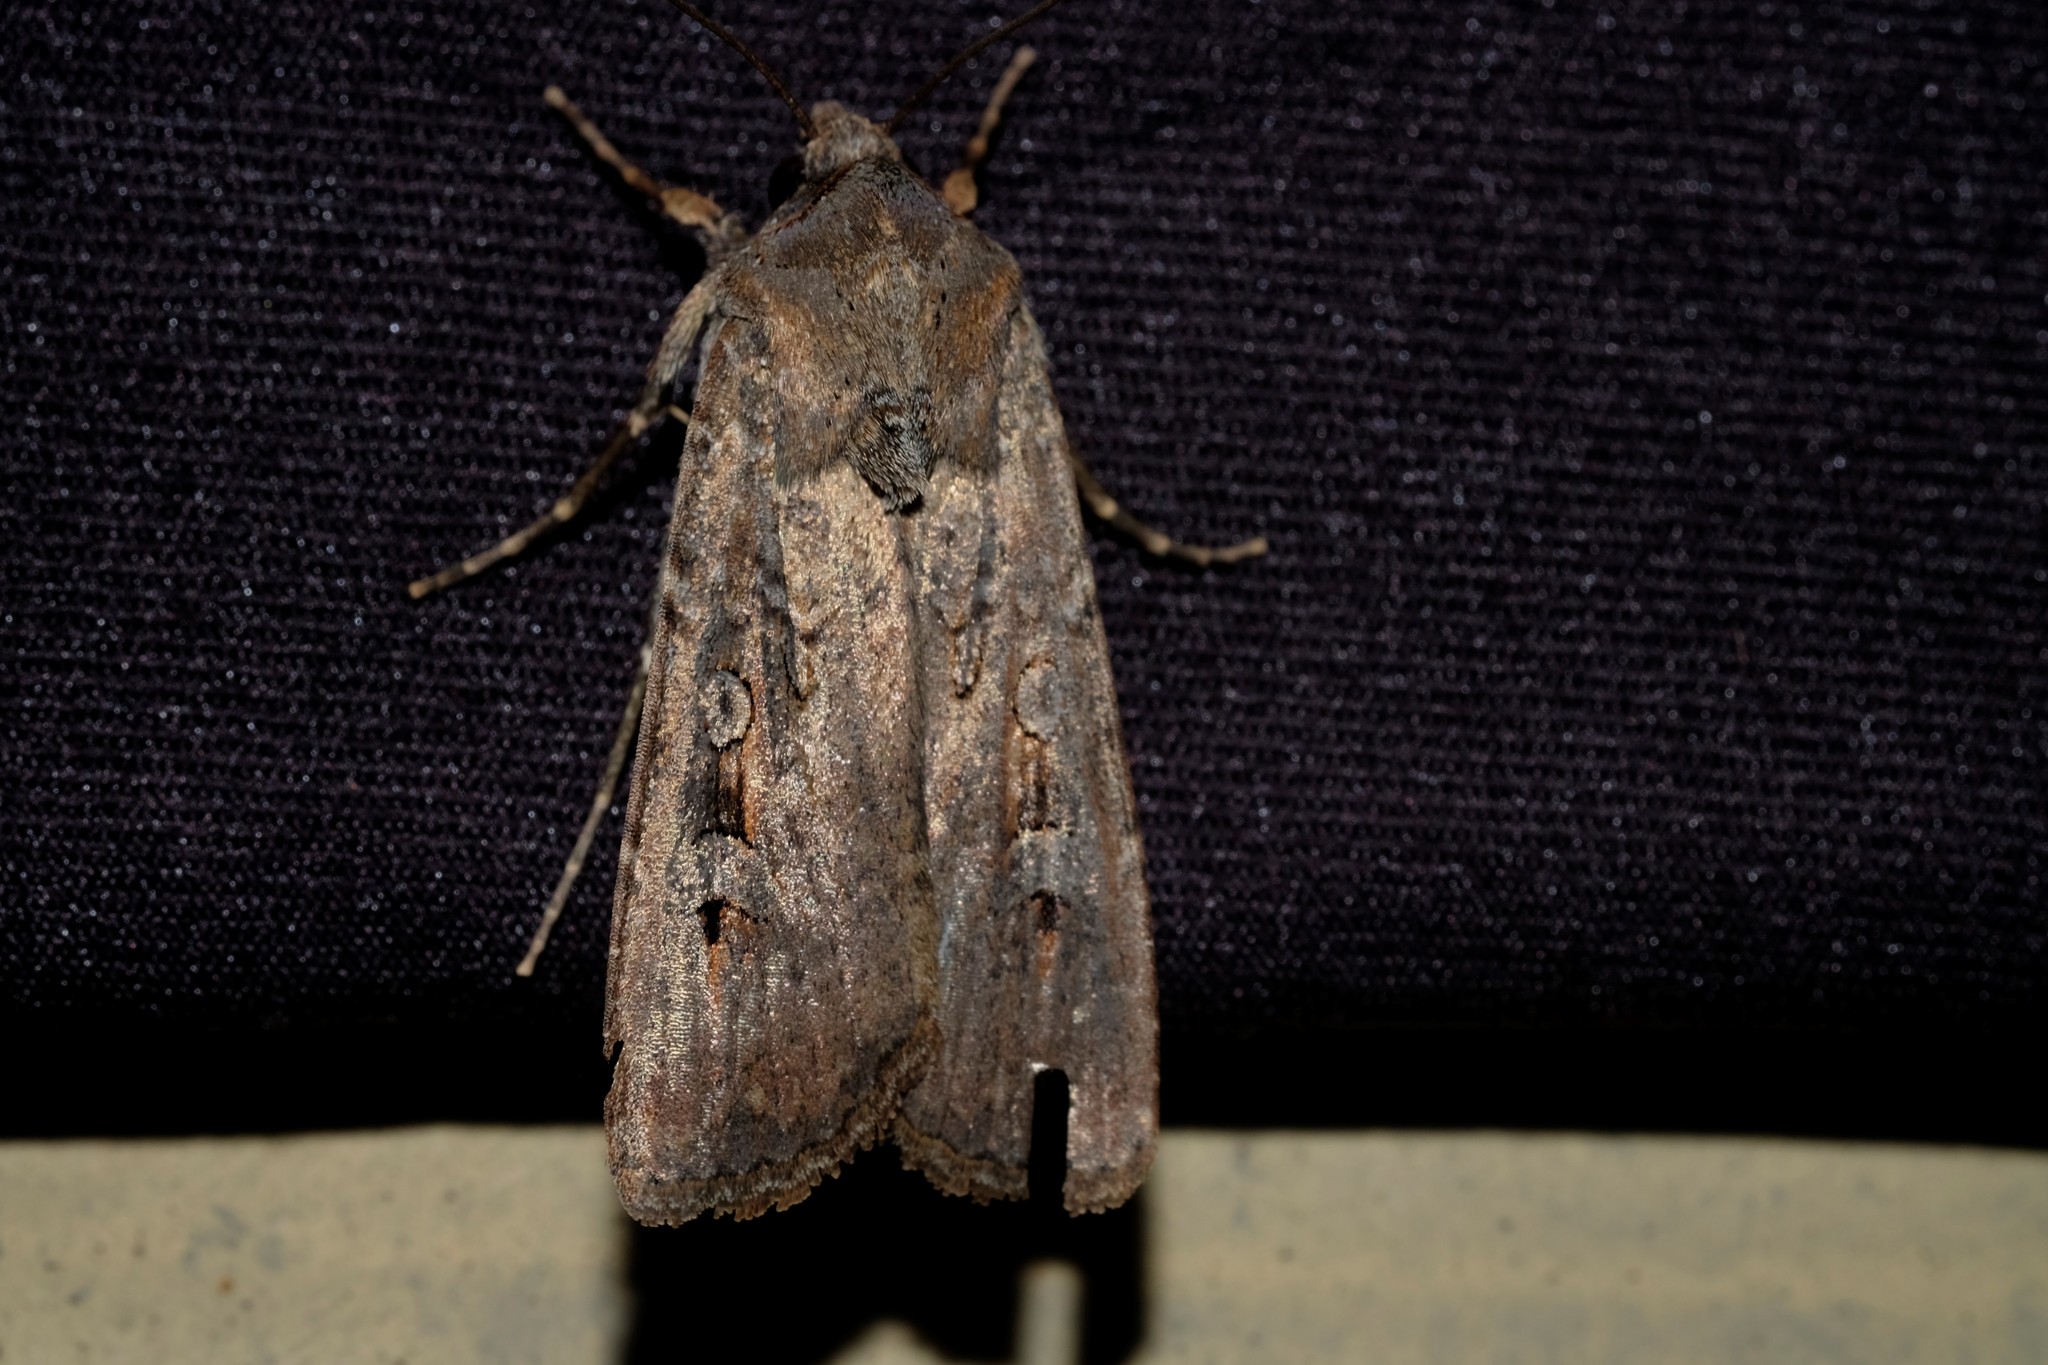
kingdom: Animalia
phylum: Arthropoda
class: Insecta
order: Lepidoptera
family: Noctuidae
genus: Agrotis
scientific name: Agrotis infusa
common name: Bogong moth
